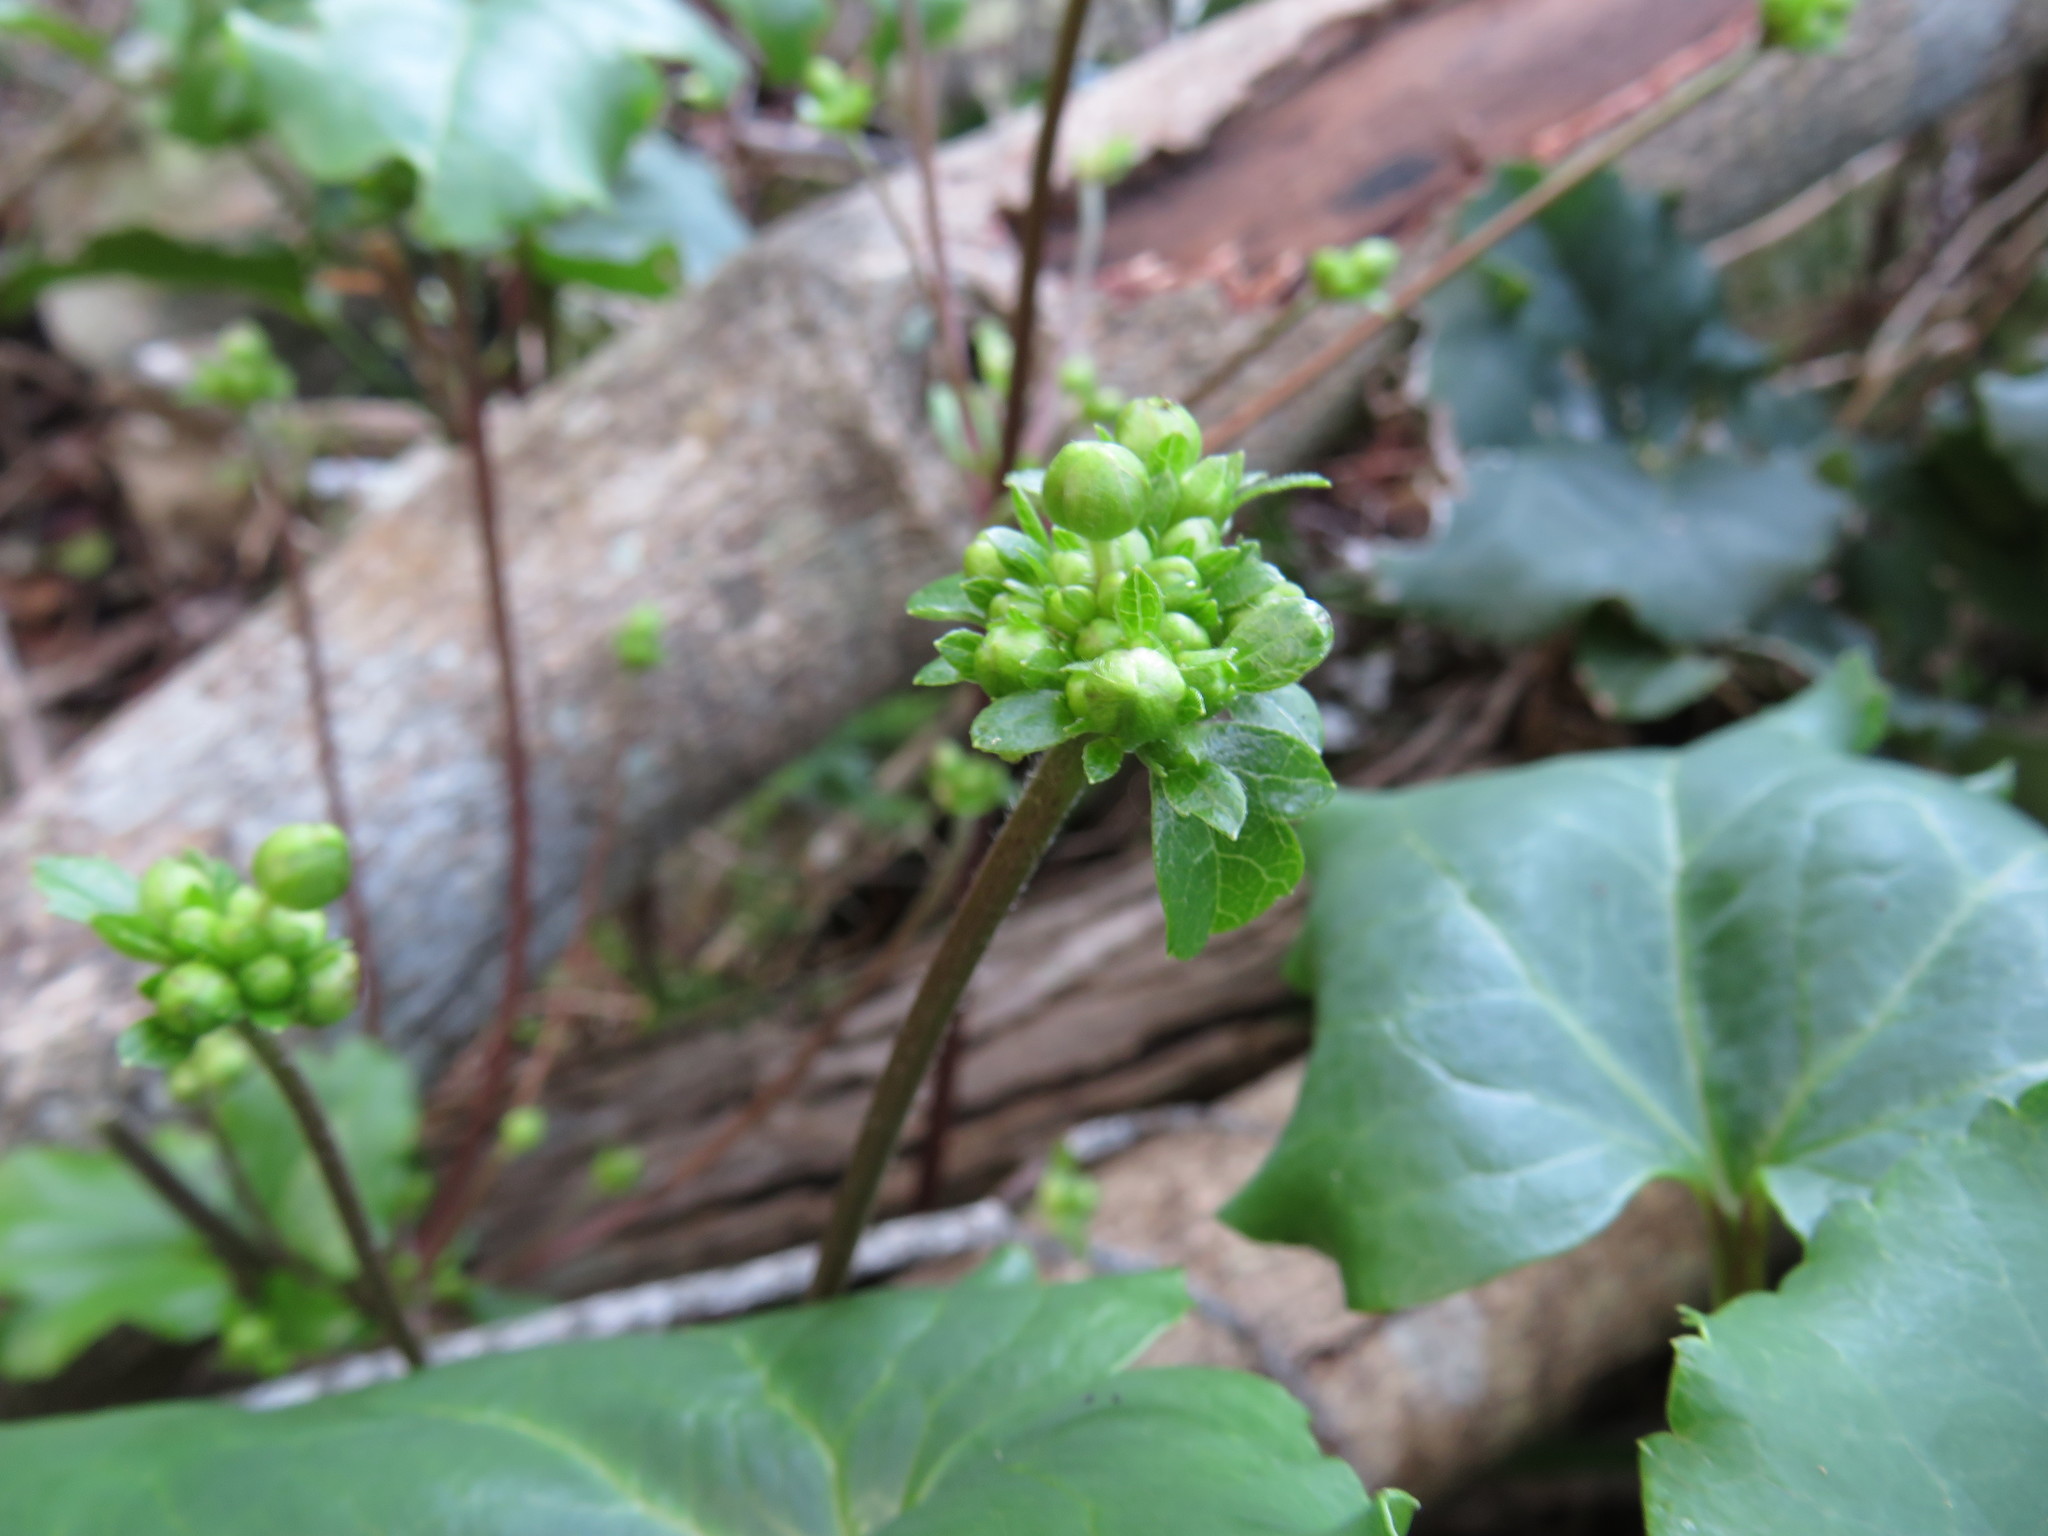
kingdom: Plantae
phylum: Tracheophyta
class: Magnoliopsida
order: Ranunculales
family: Ranunculaceae
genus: Knowltonia
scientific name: Knowltonia vesicatoria
